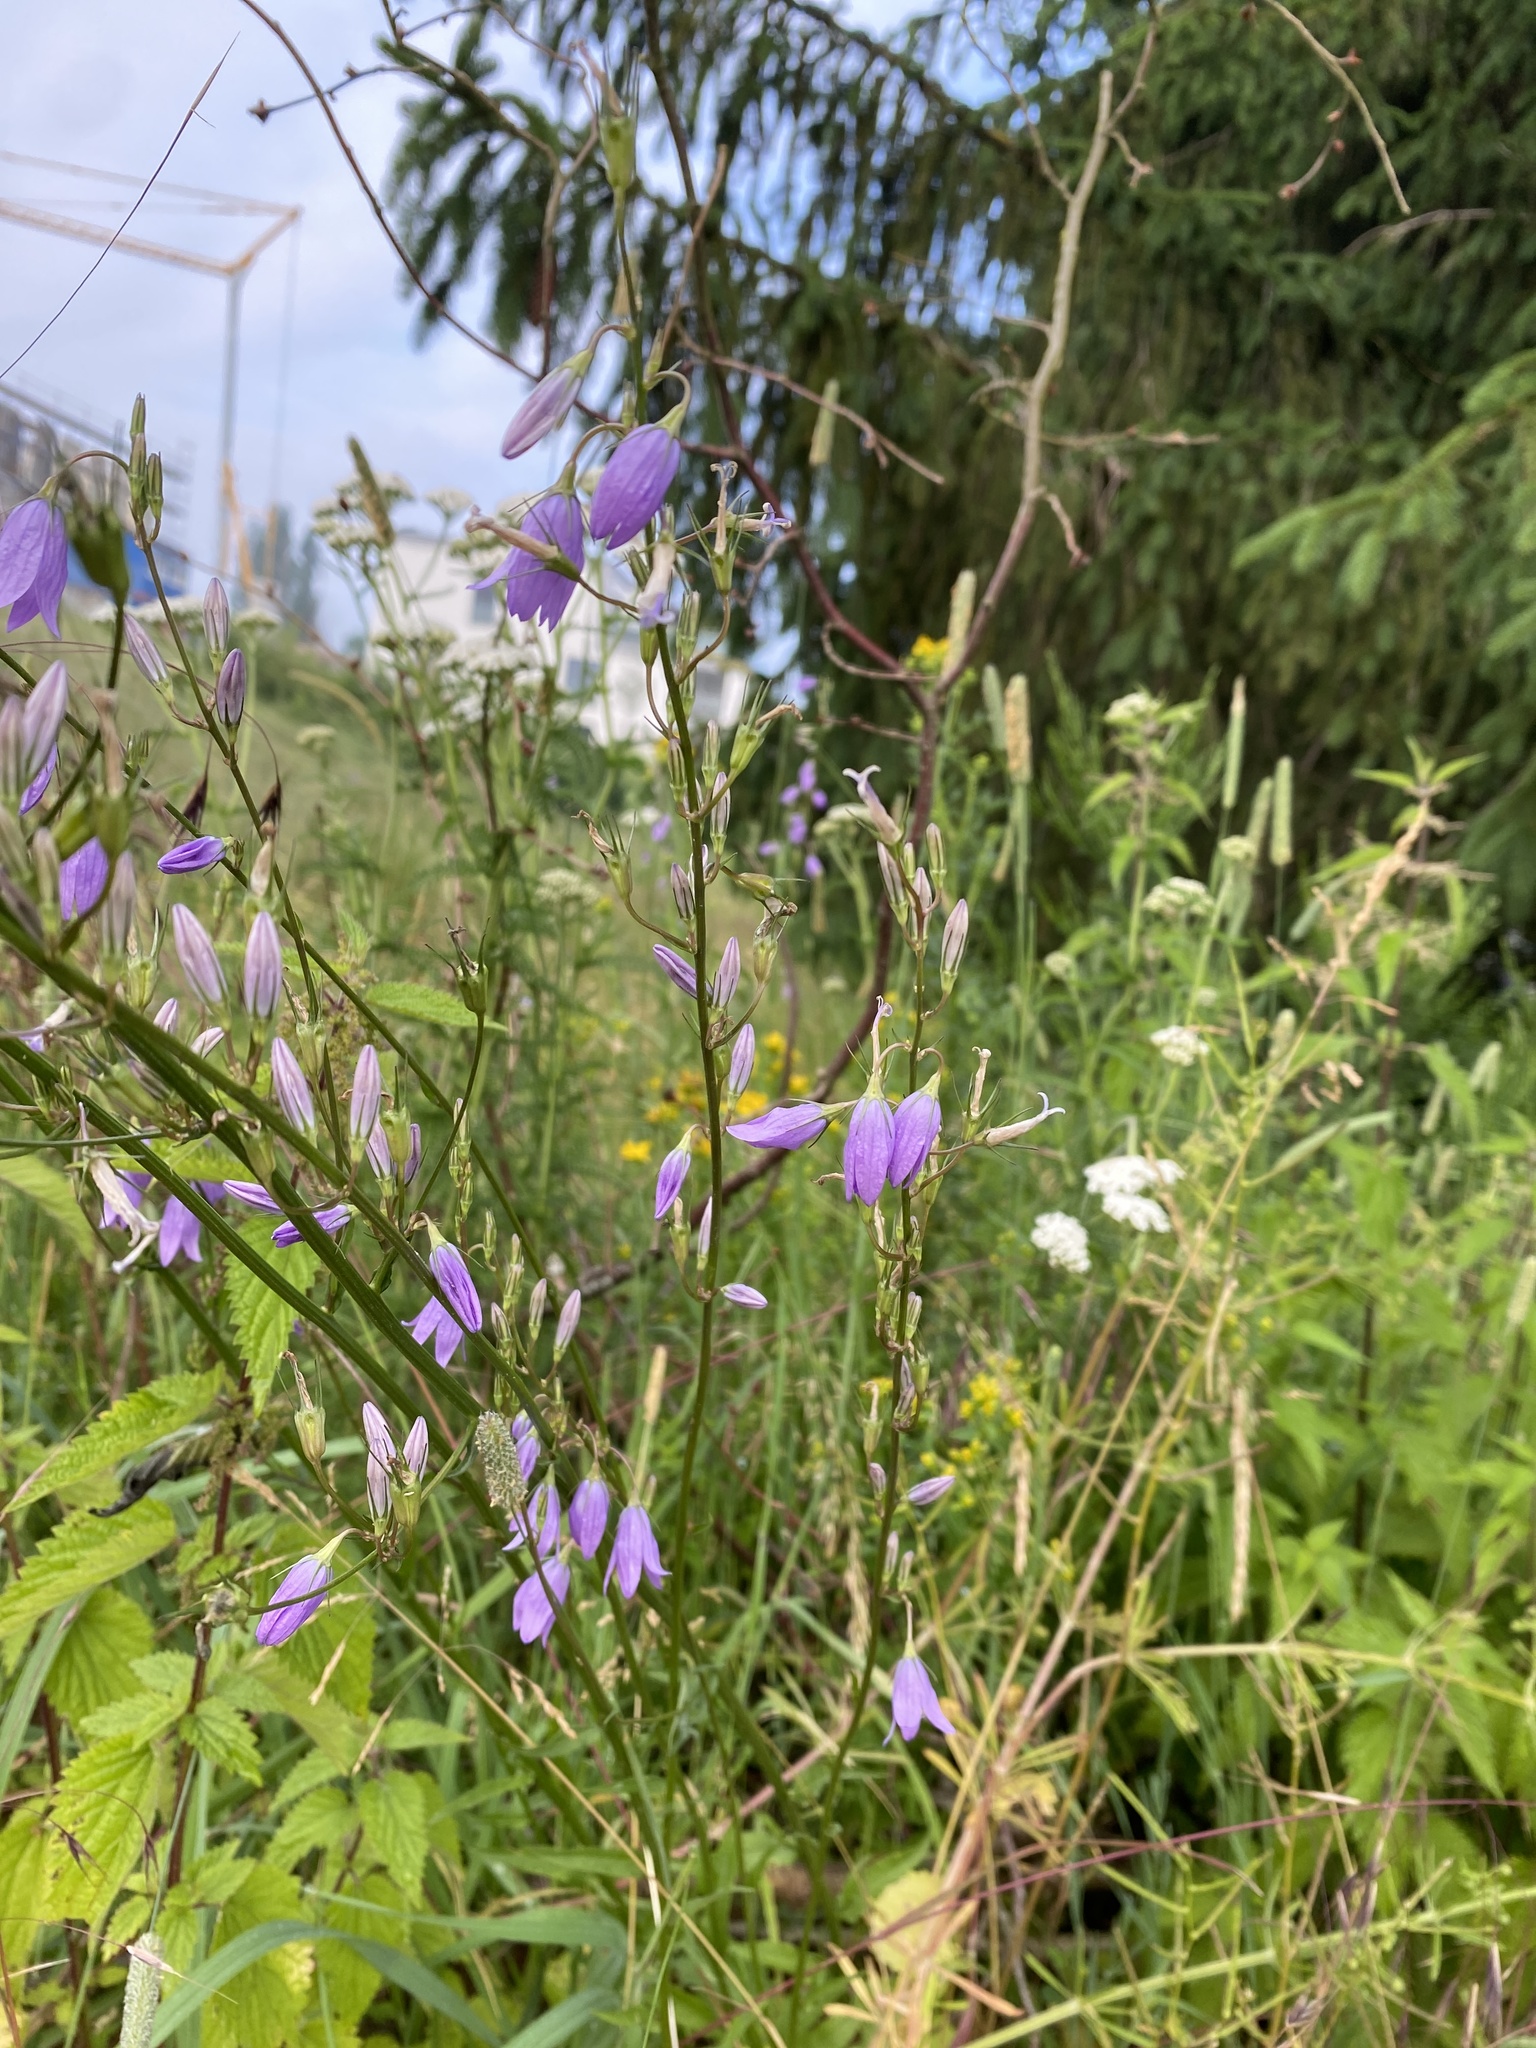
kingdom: Plantae
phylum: Tracheophyta
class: Magnoliopsida
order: Asterales
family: Campanulaceae
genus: Campanula
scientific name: Campanula rapunculus
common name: Rampion bellflower
